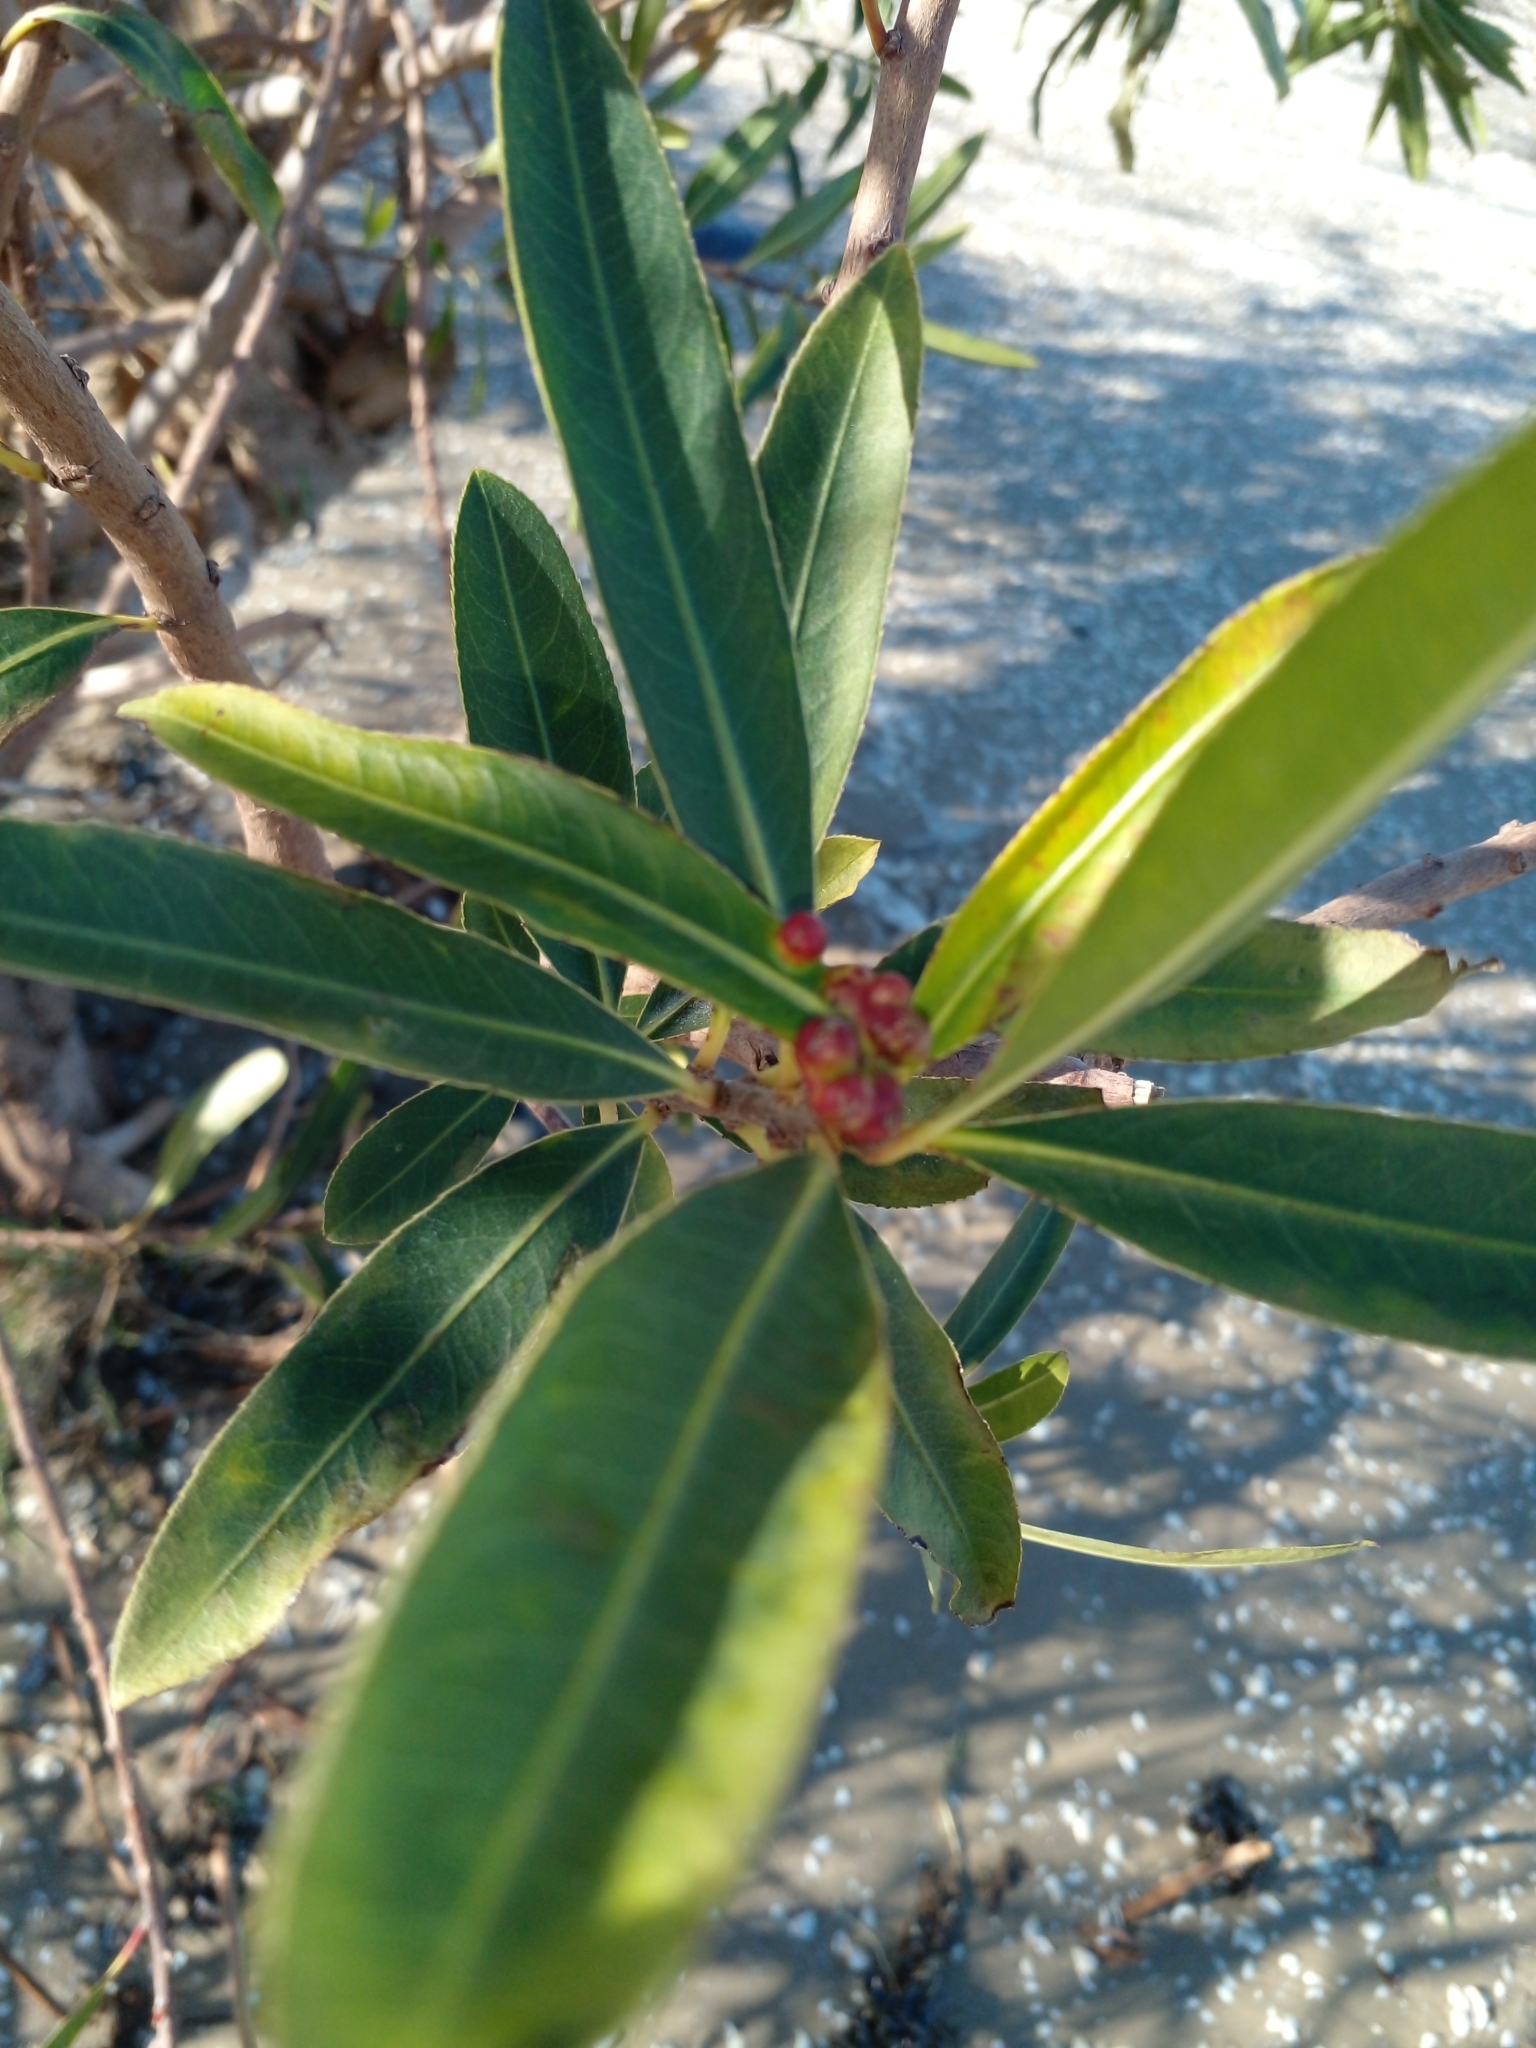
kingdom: Plantae
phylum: Tracheophyta
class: Magnoliopsida
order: Malpighiales
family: Euphorbiaceae
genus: Sapium
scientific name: Sapium haematospermum
